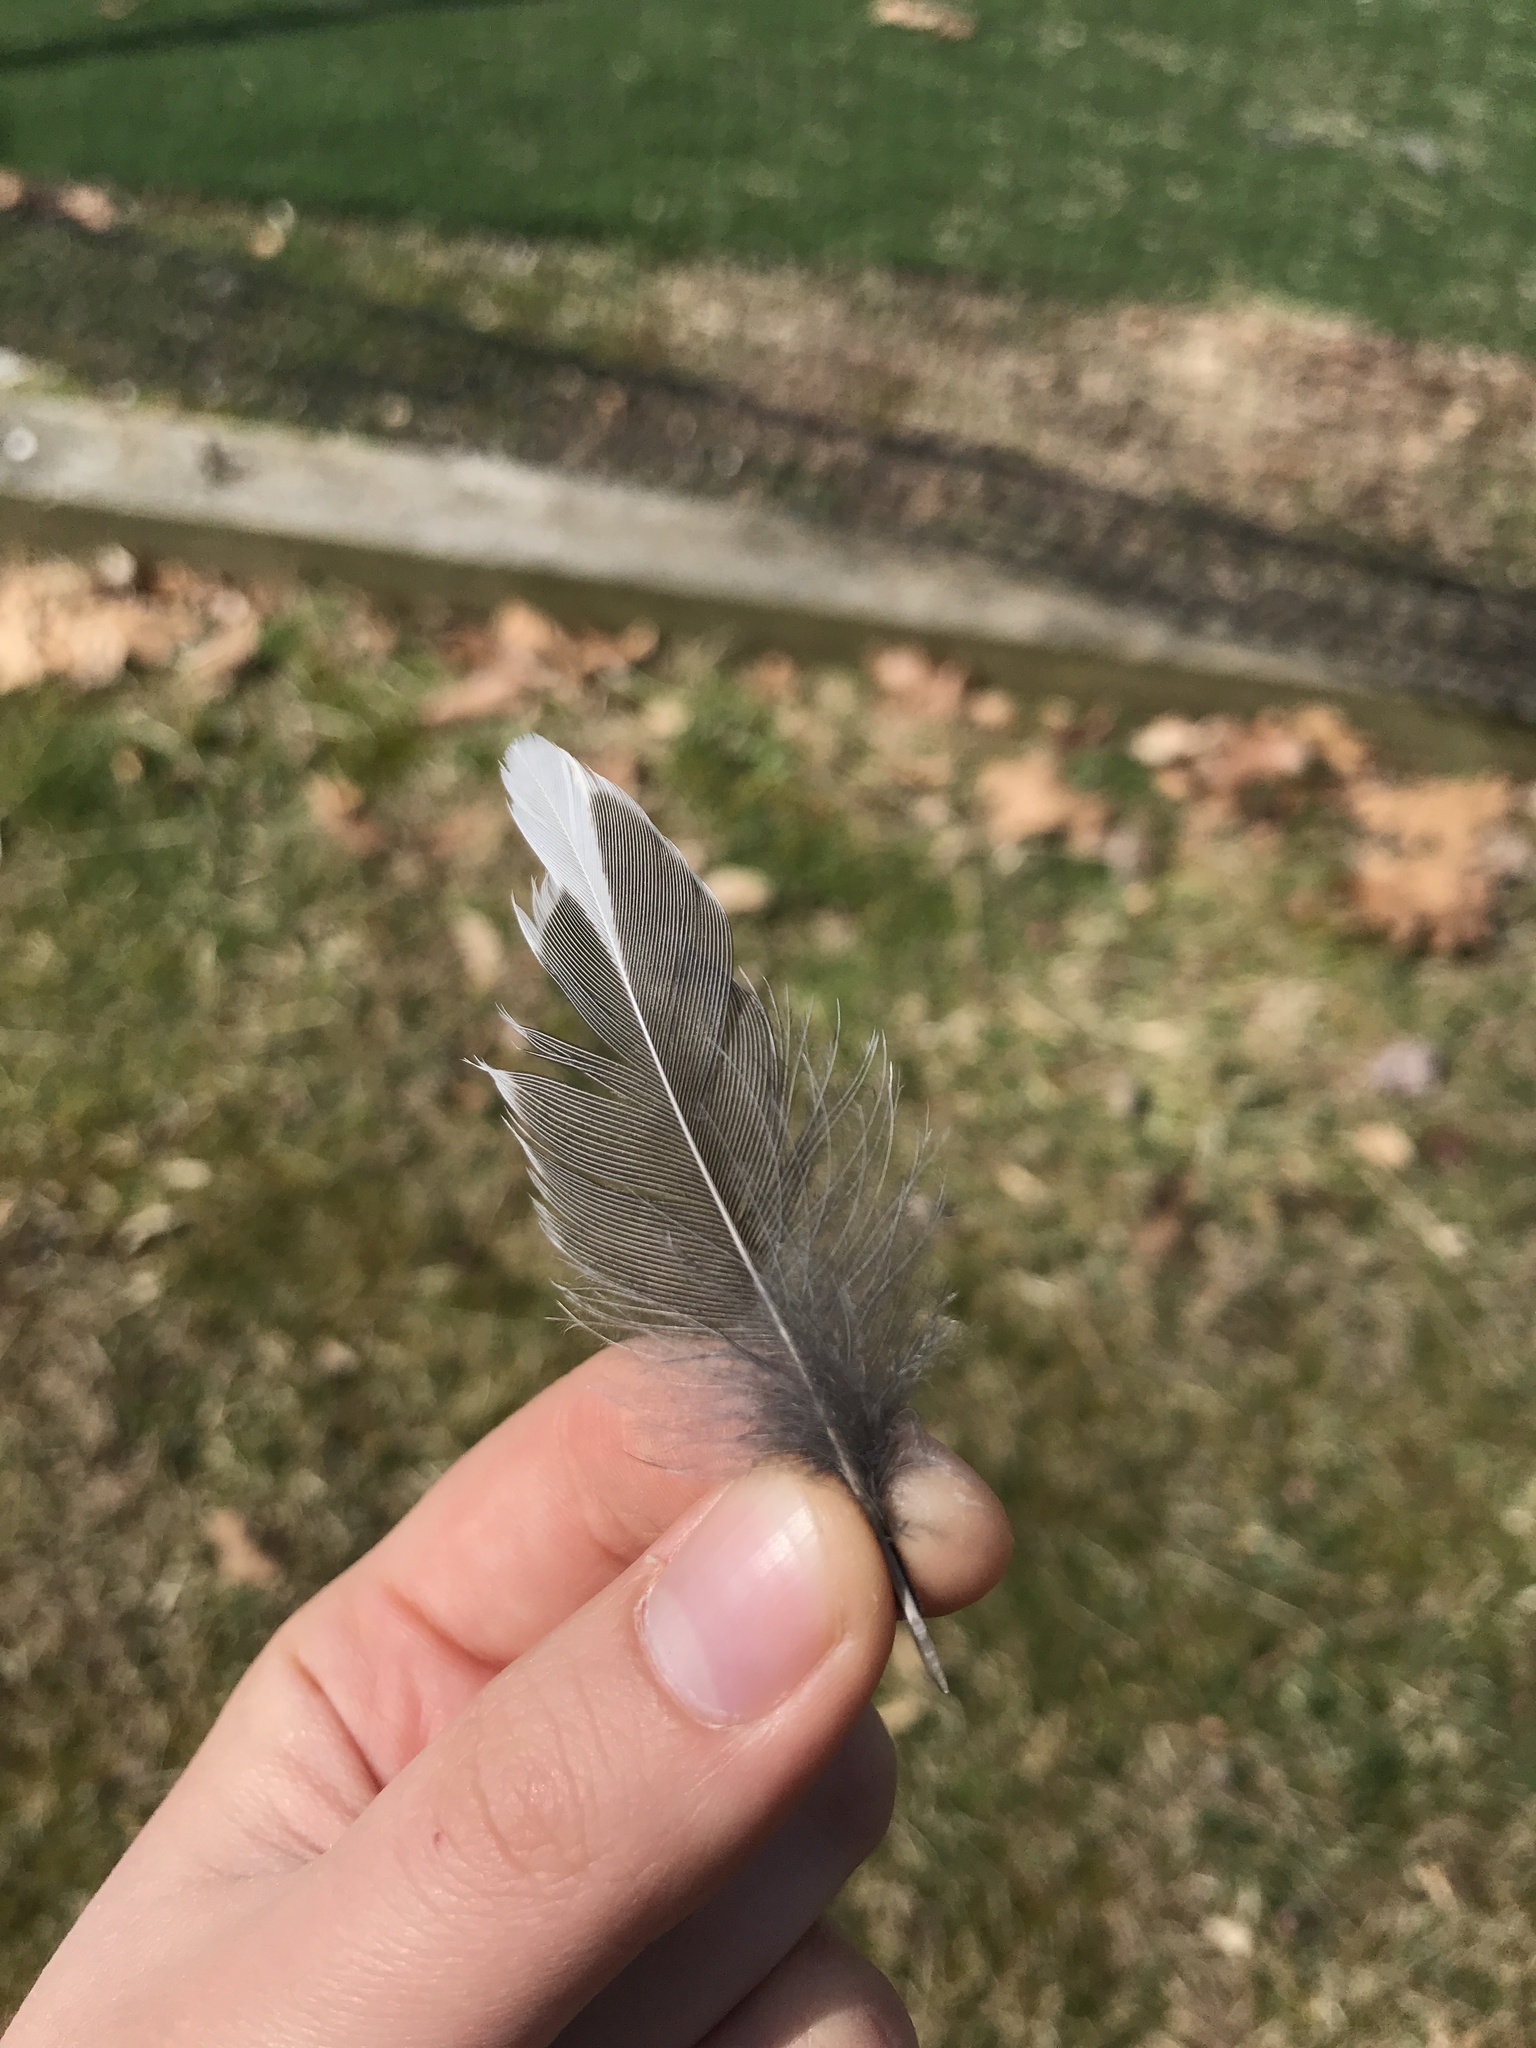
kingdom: Animalia
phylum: Chordata
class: Aves
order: Passeriformes
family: Turdidae
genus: Turdus
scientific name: Turdus migratorius
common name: American robin
